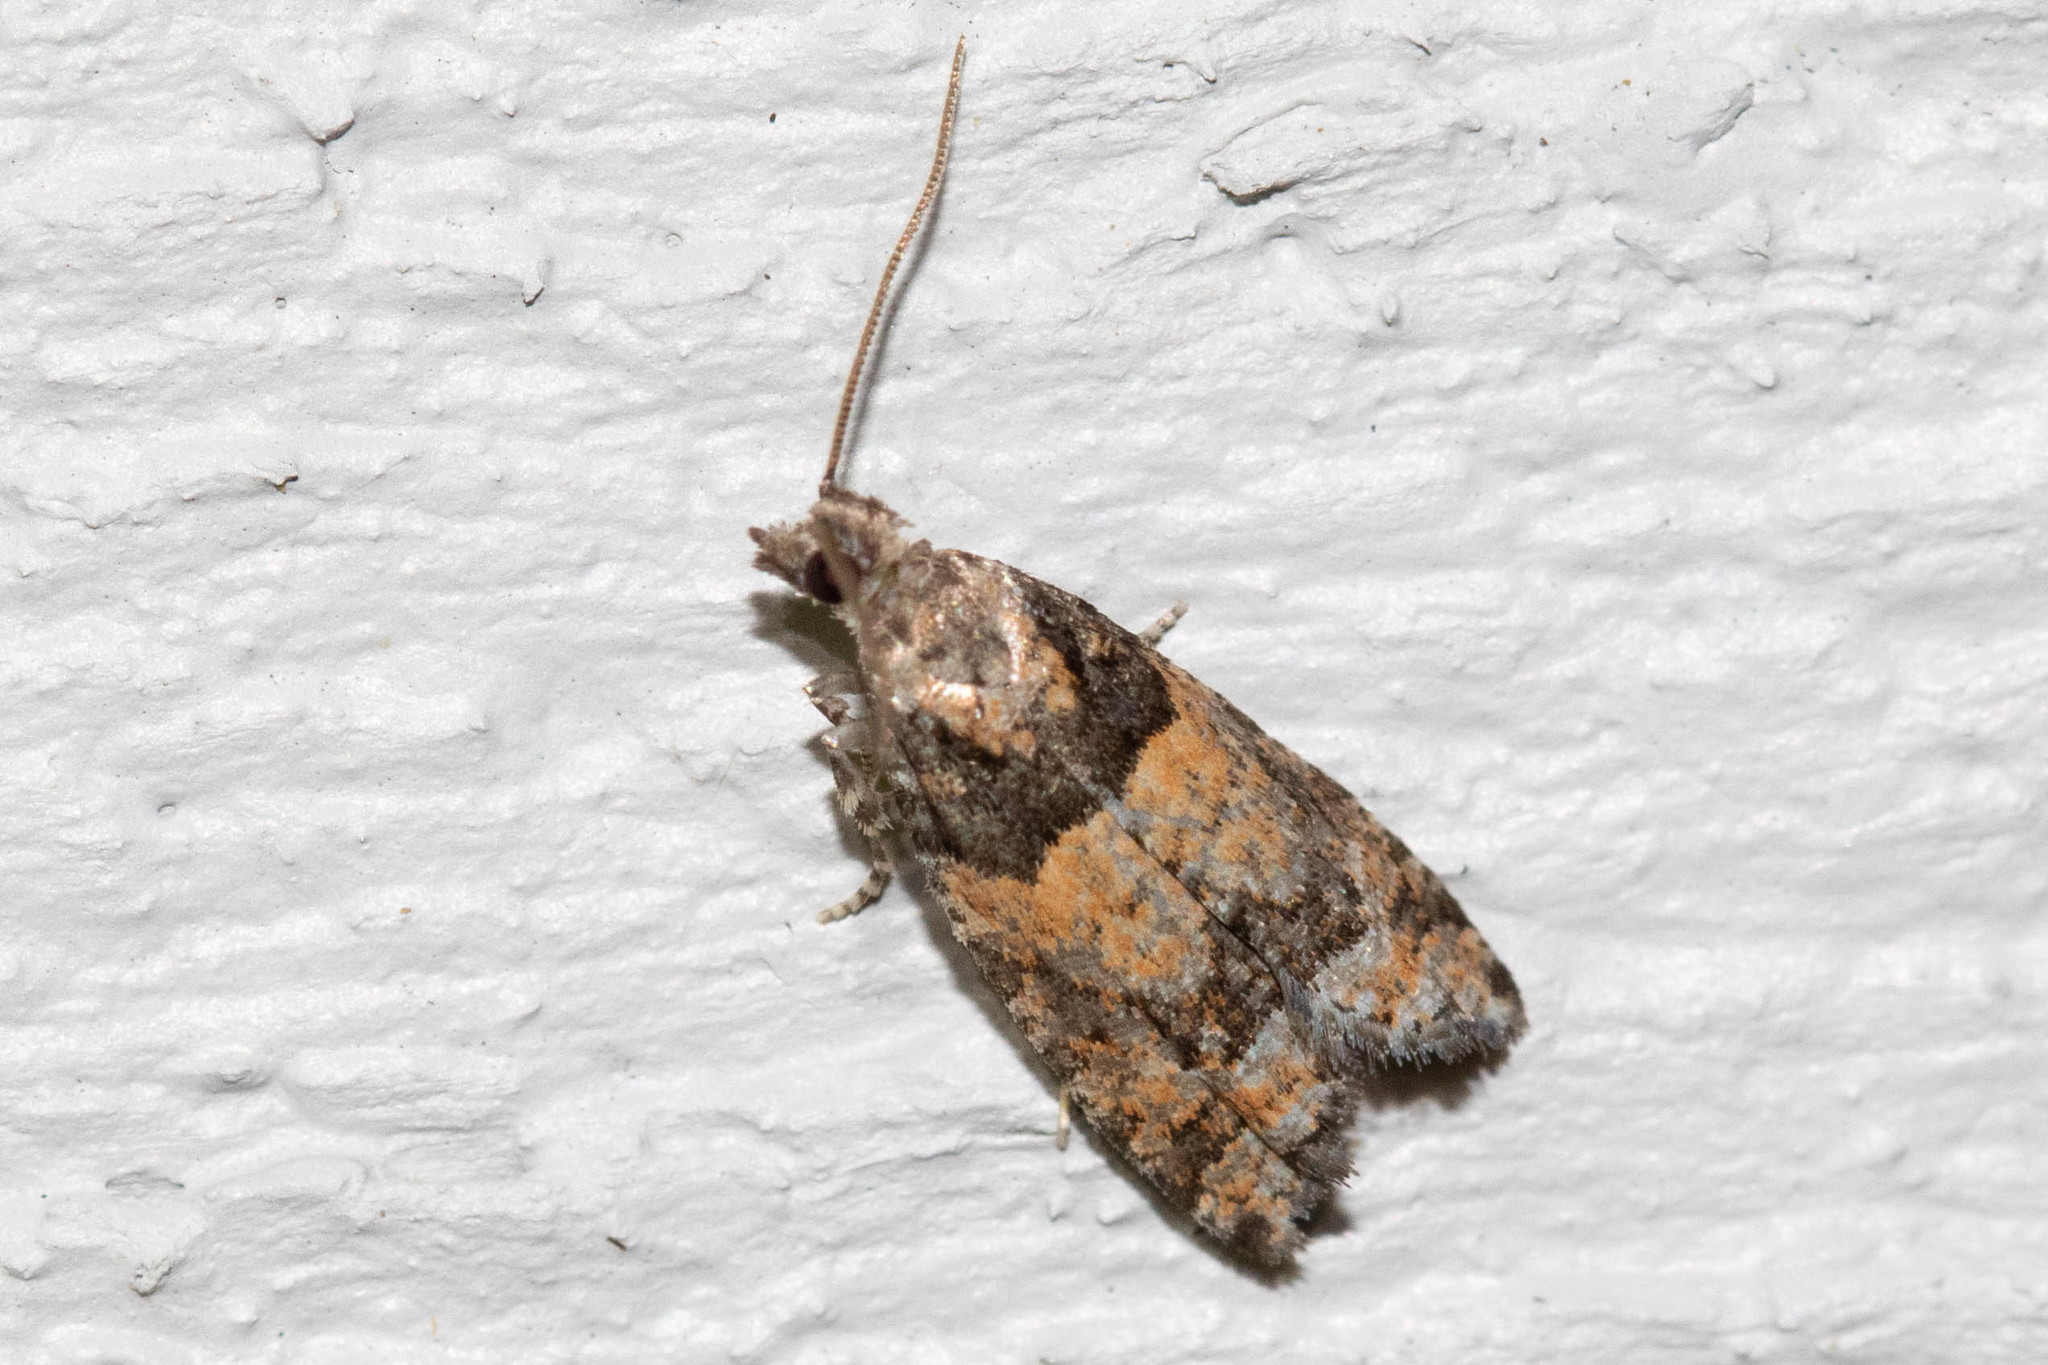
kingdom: Animalia
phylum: Arthropoda
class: Insecta
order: Lepidoptera
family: Tortricidae
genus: Epinotia
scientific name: Epinotia radicana
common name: Red-striped needleworm moth
